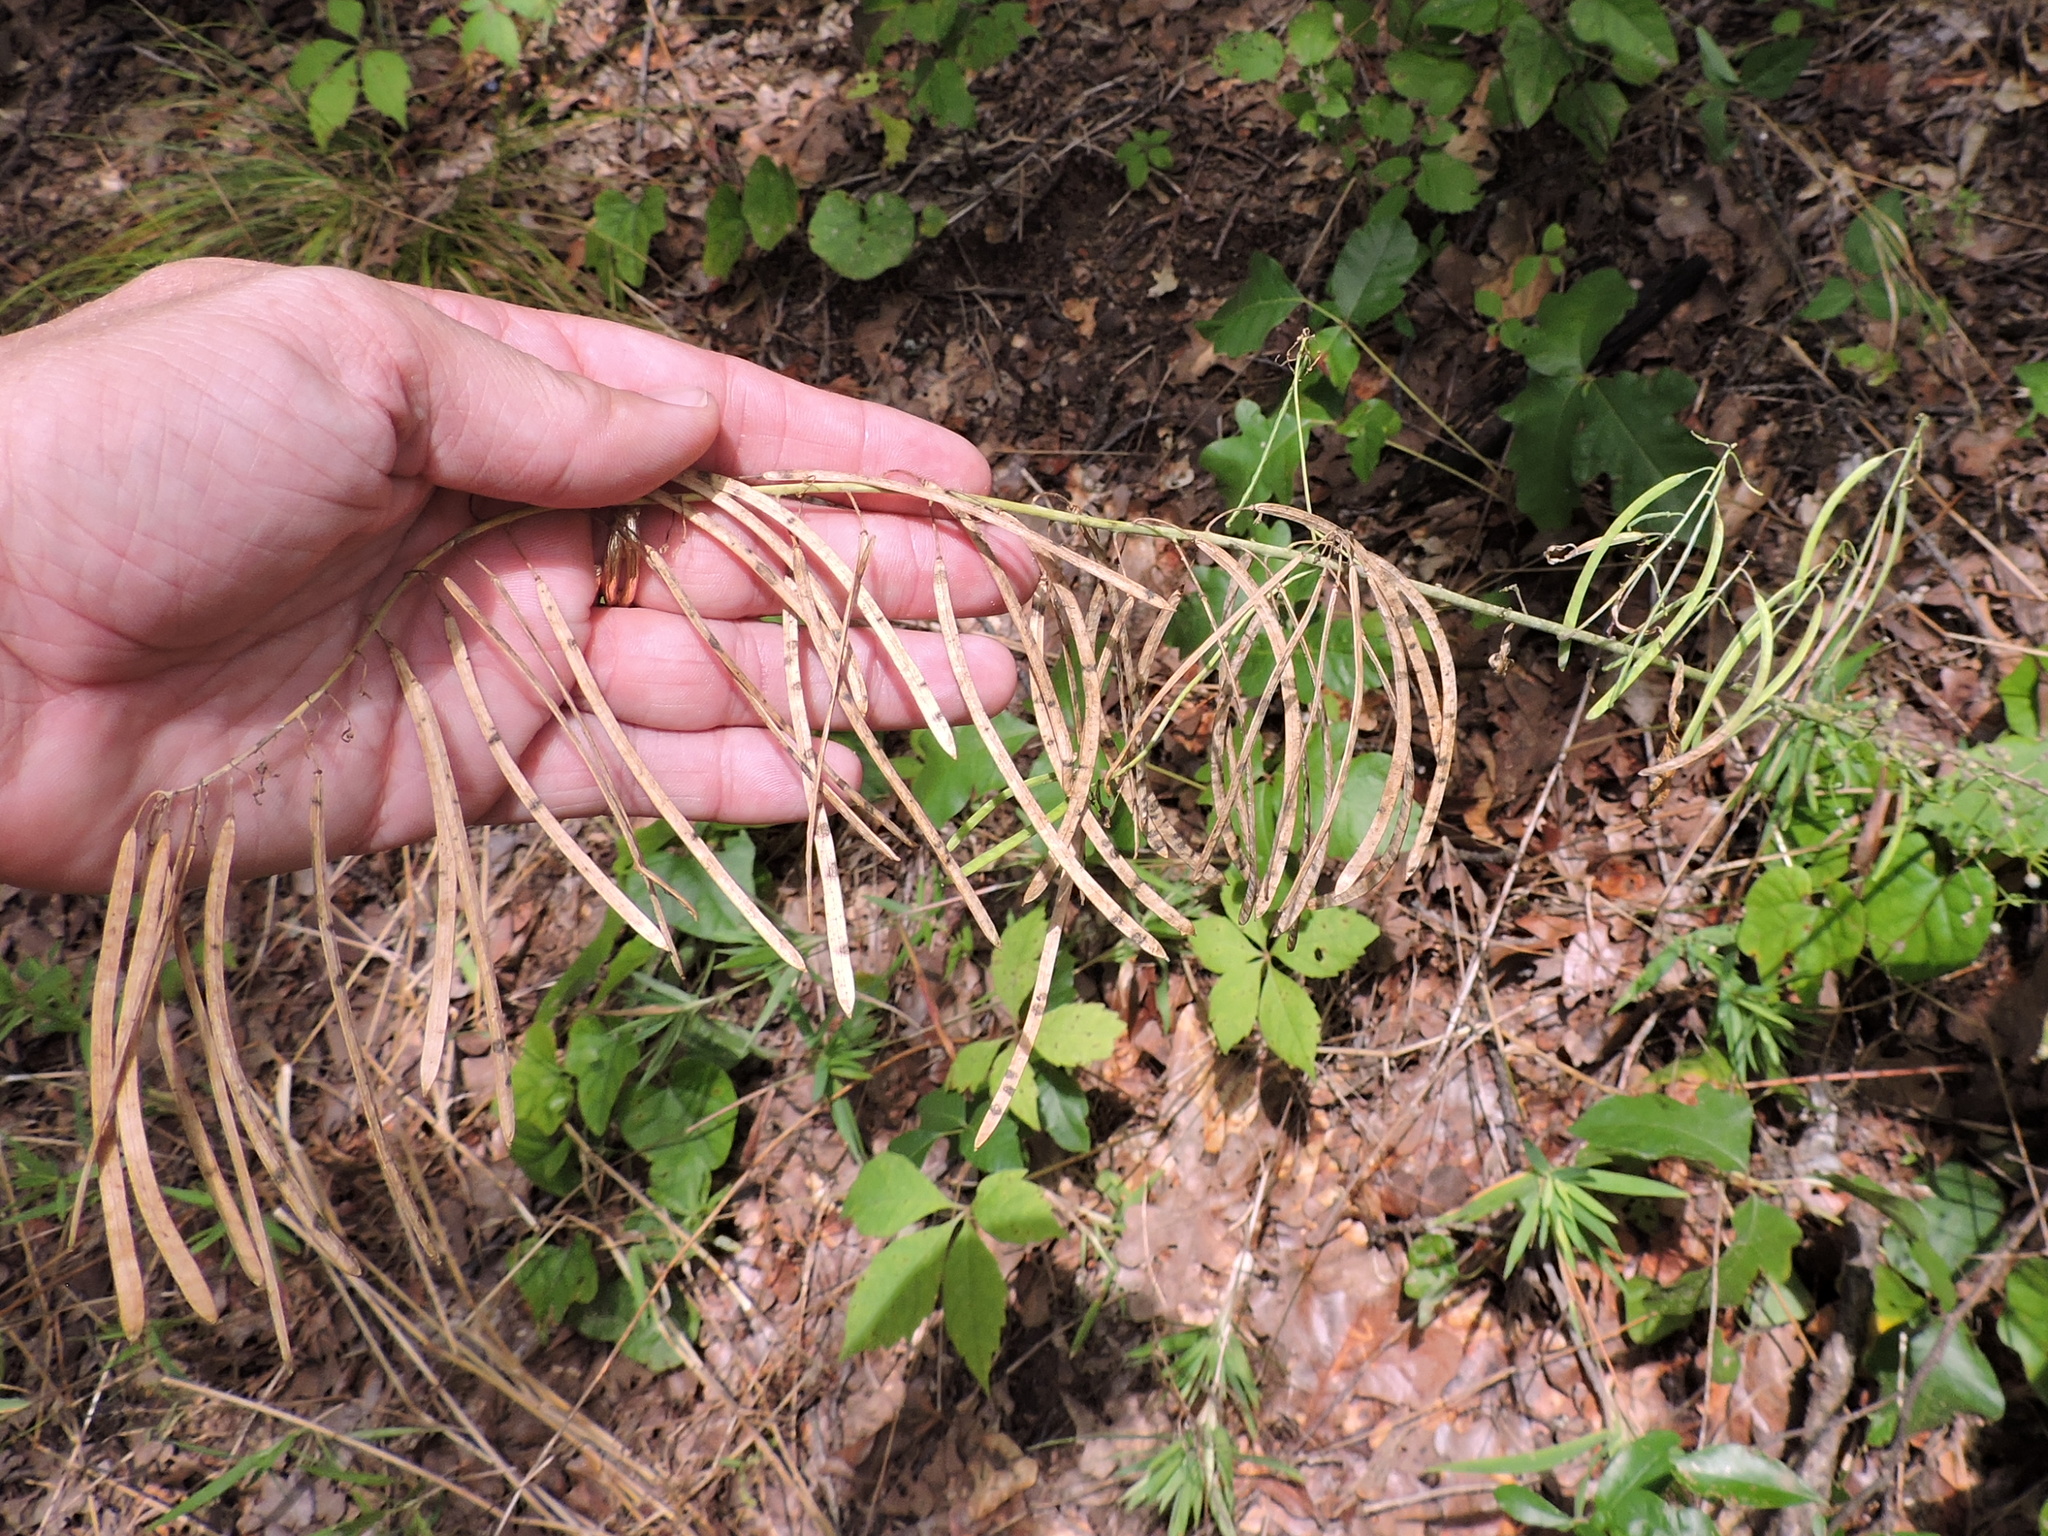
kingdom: Plantae
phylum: Tracheophyta
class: Magnoliopsida
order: Brassicales
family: Brassicaceae
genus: Borodinia
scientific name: Borodinia canadensis
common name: Sicklepod
